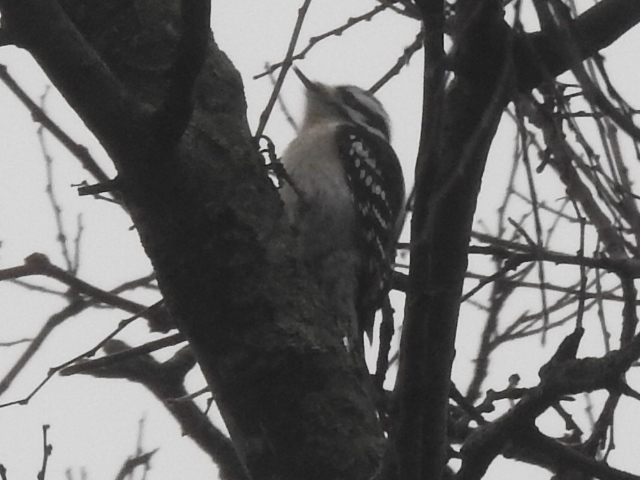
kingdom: Animalia
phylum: Chordata
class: Aves
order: Piciformes
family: Picidae
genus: Dryobates
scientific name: Dryobates pubescens
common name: Downy woodpecker
